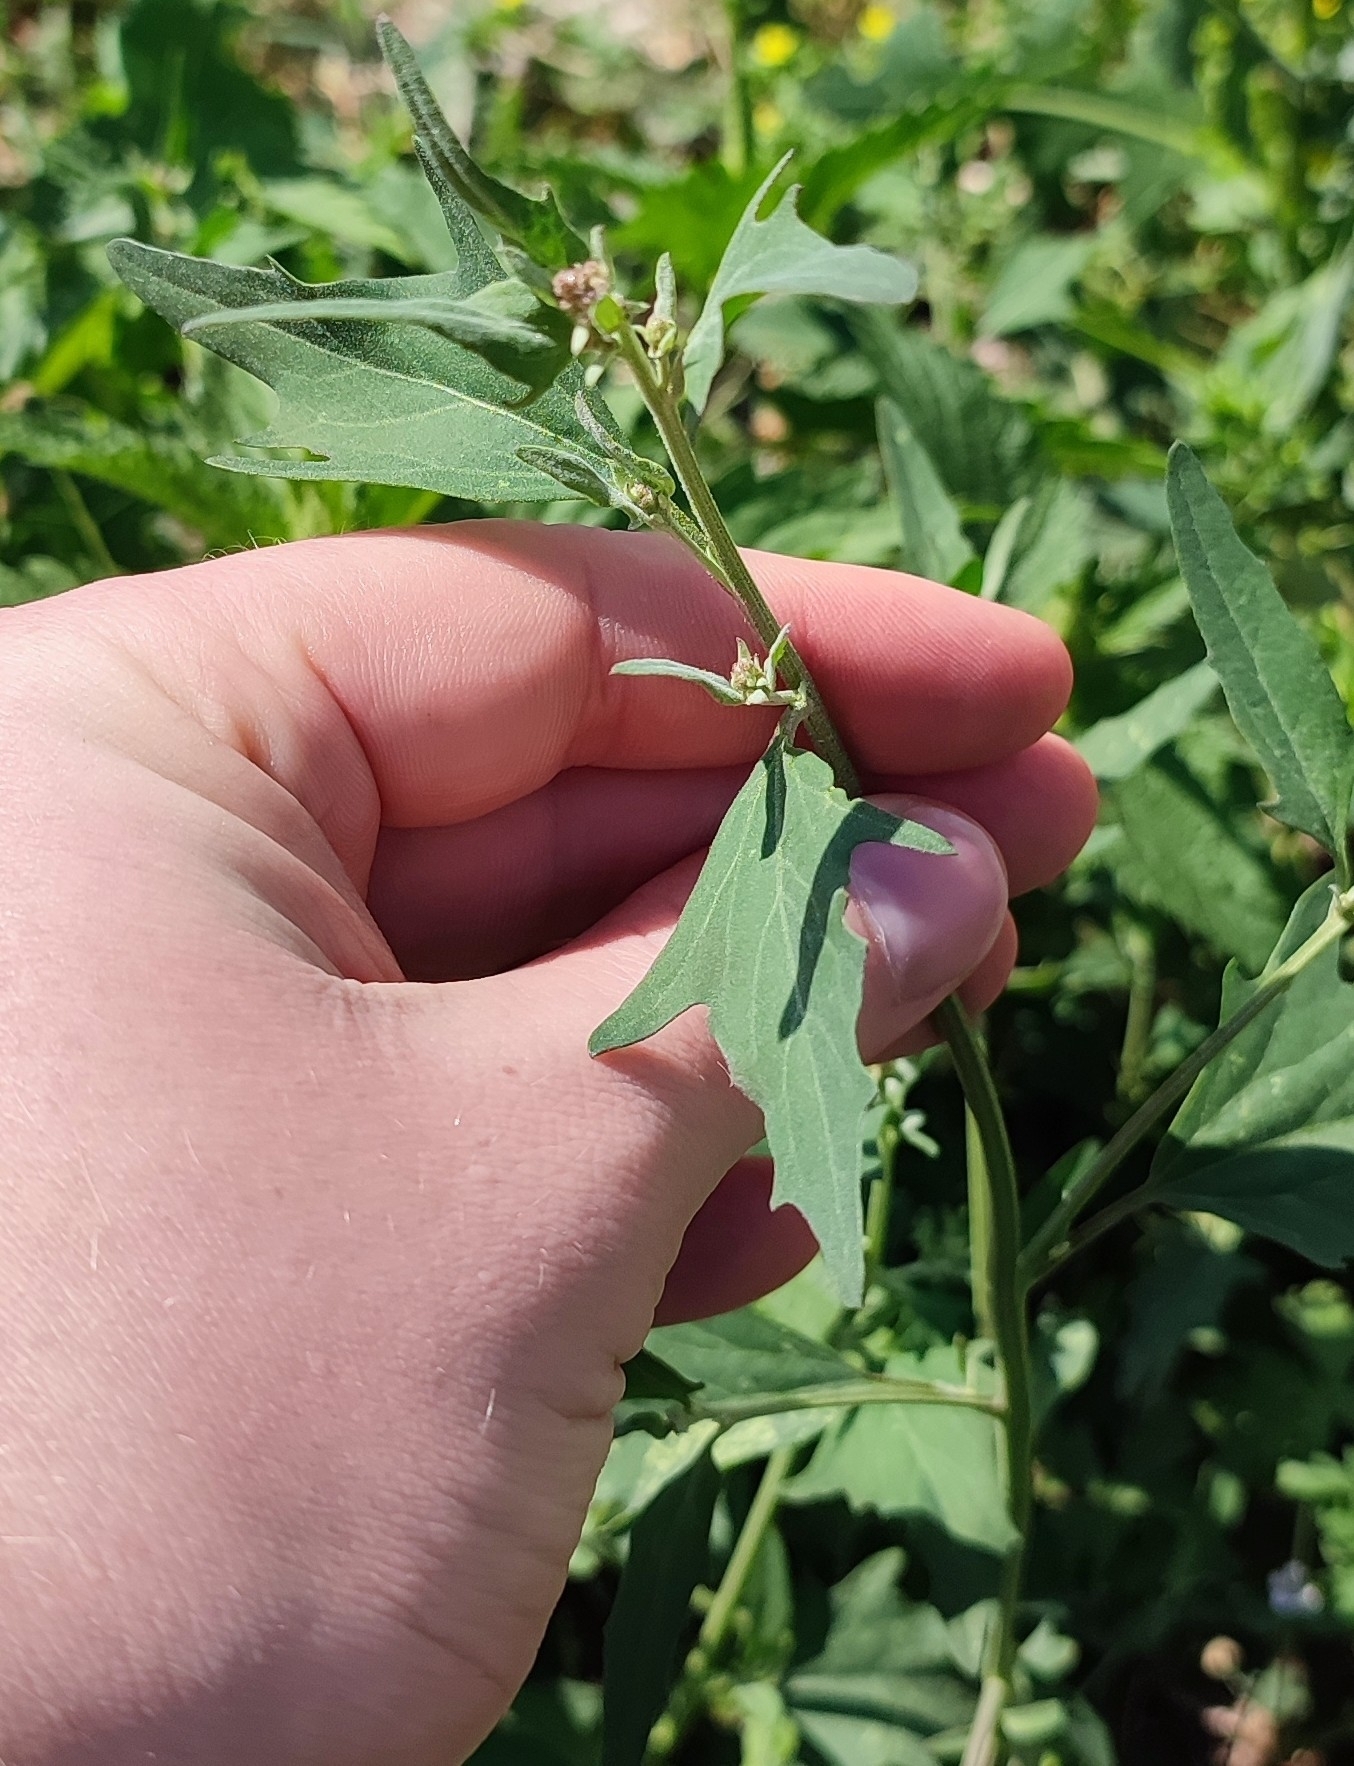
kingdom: Plantae
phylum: Tracheophyta
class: Magnoliopsida
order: Caryophyllales
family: Amaranthaceae
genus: Atriplex
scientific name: Atriplex patula
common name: Common orache
